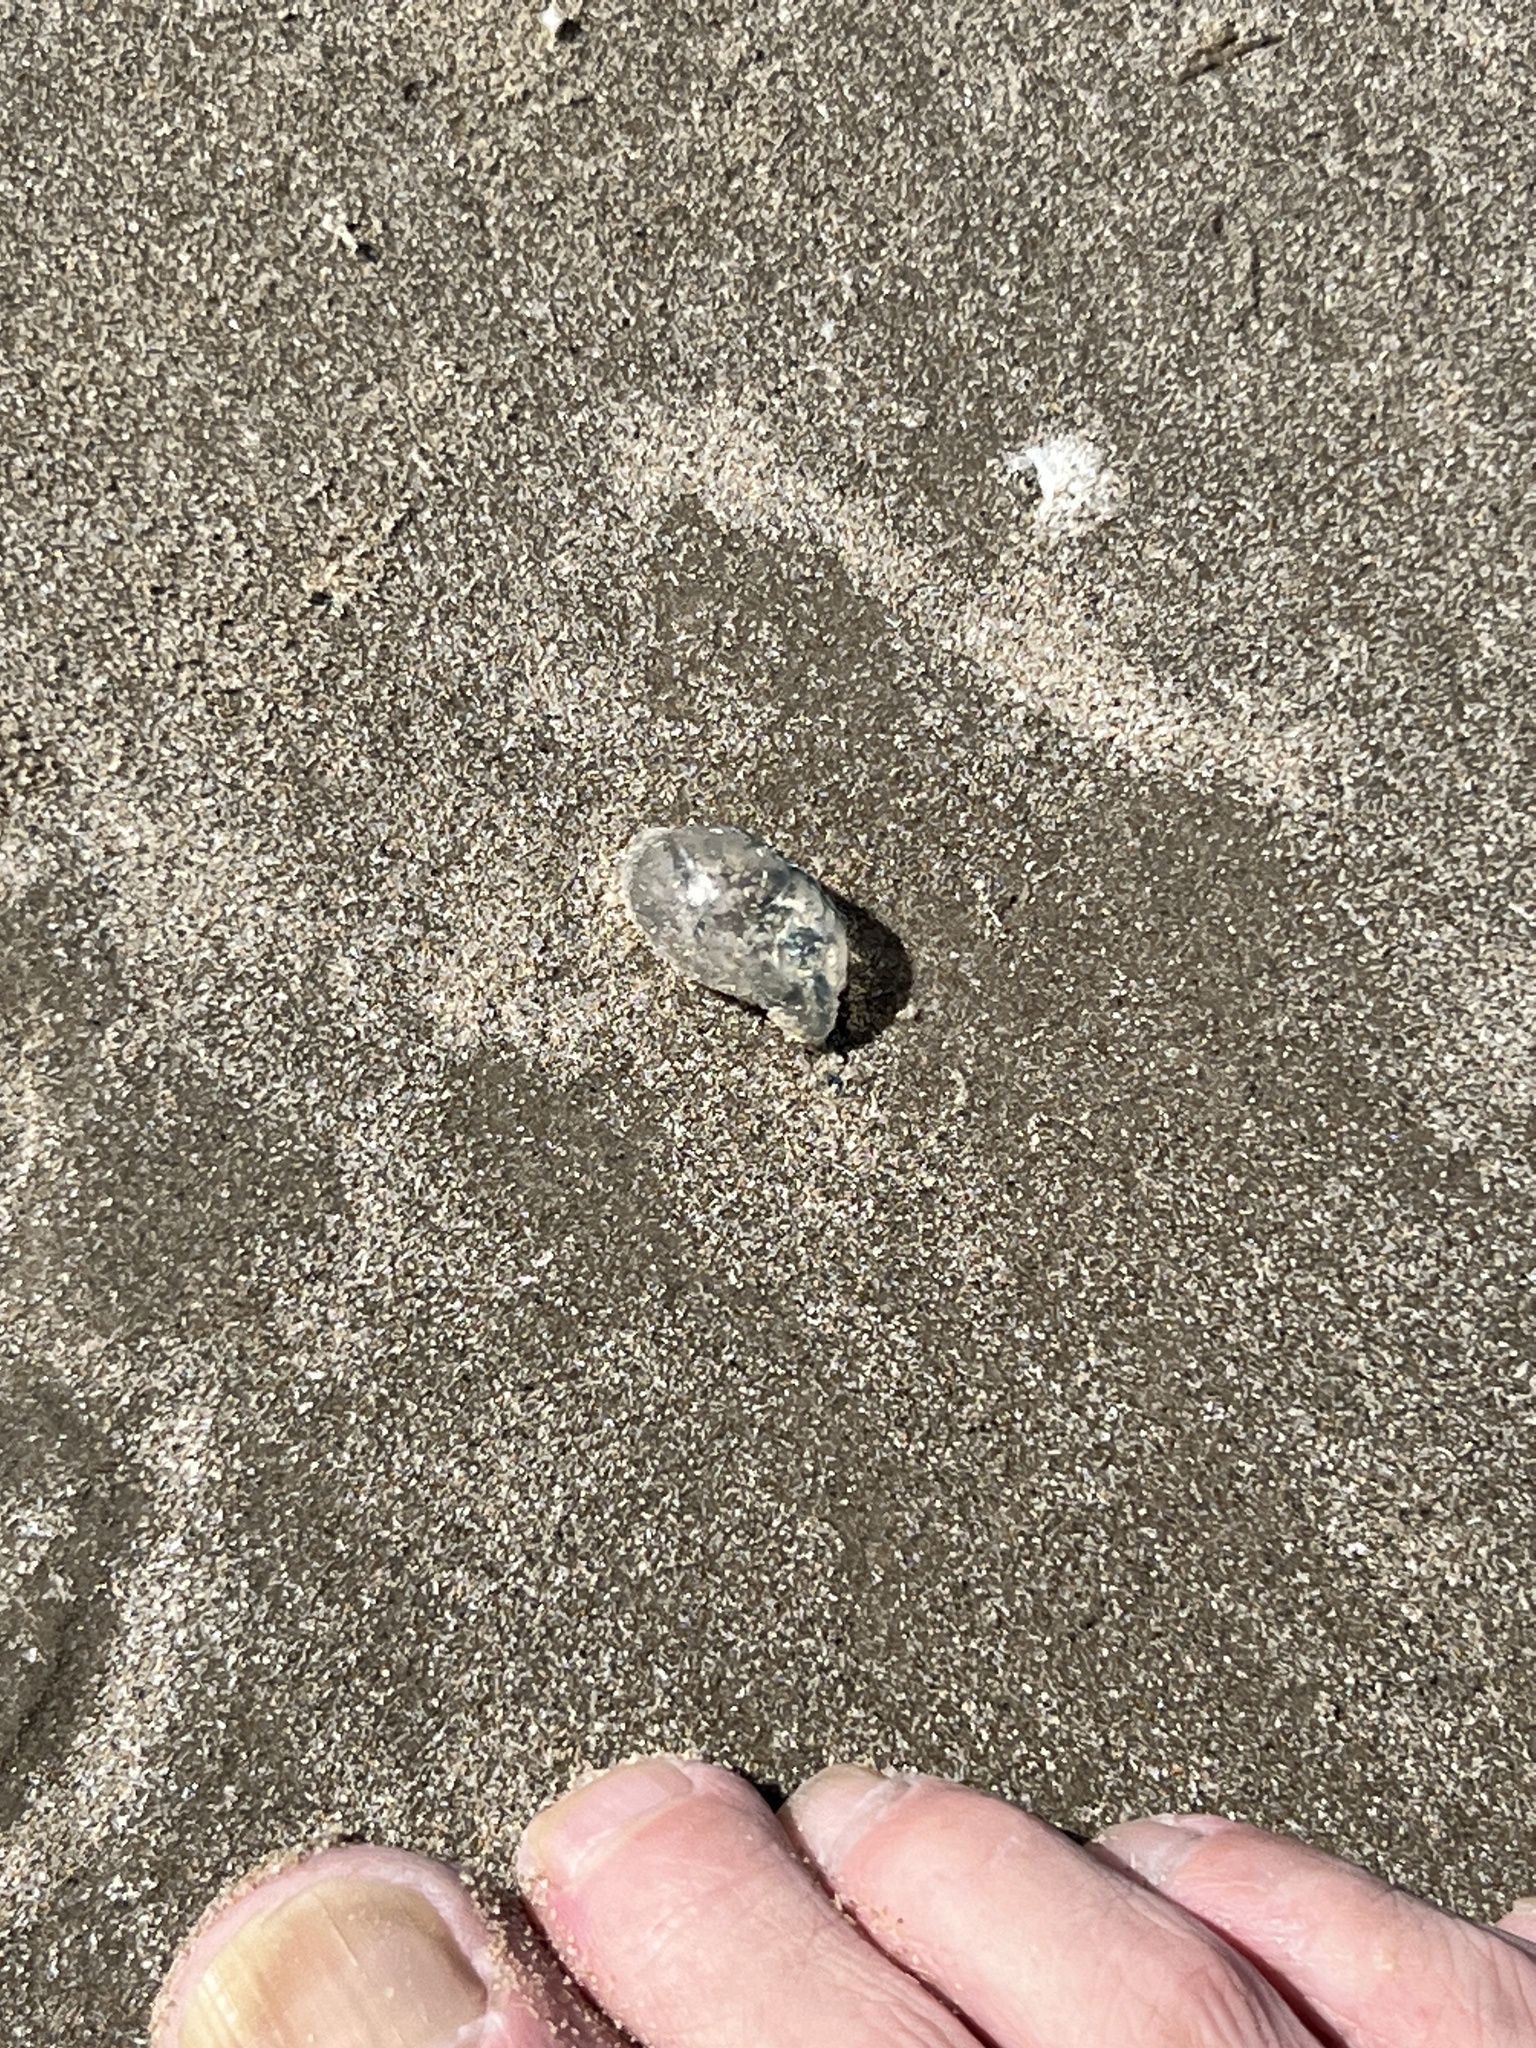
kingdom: Animalia
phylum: Cnidaria
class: Hydrozoa
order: Siphonophorae
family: Physaliidae
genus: Physalia
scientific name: Physalia physalis
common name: Portuguese man-of-war
